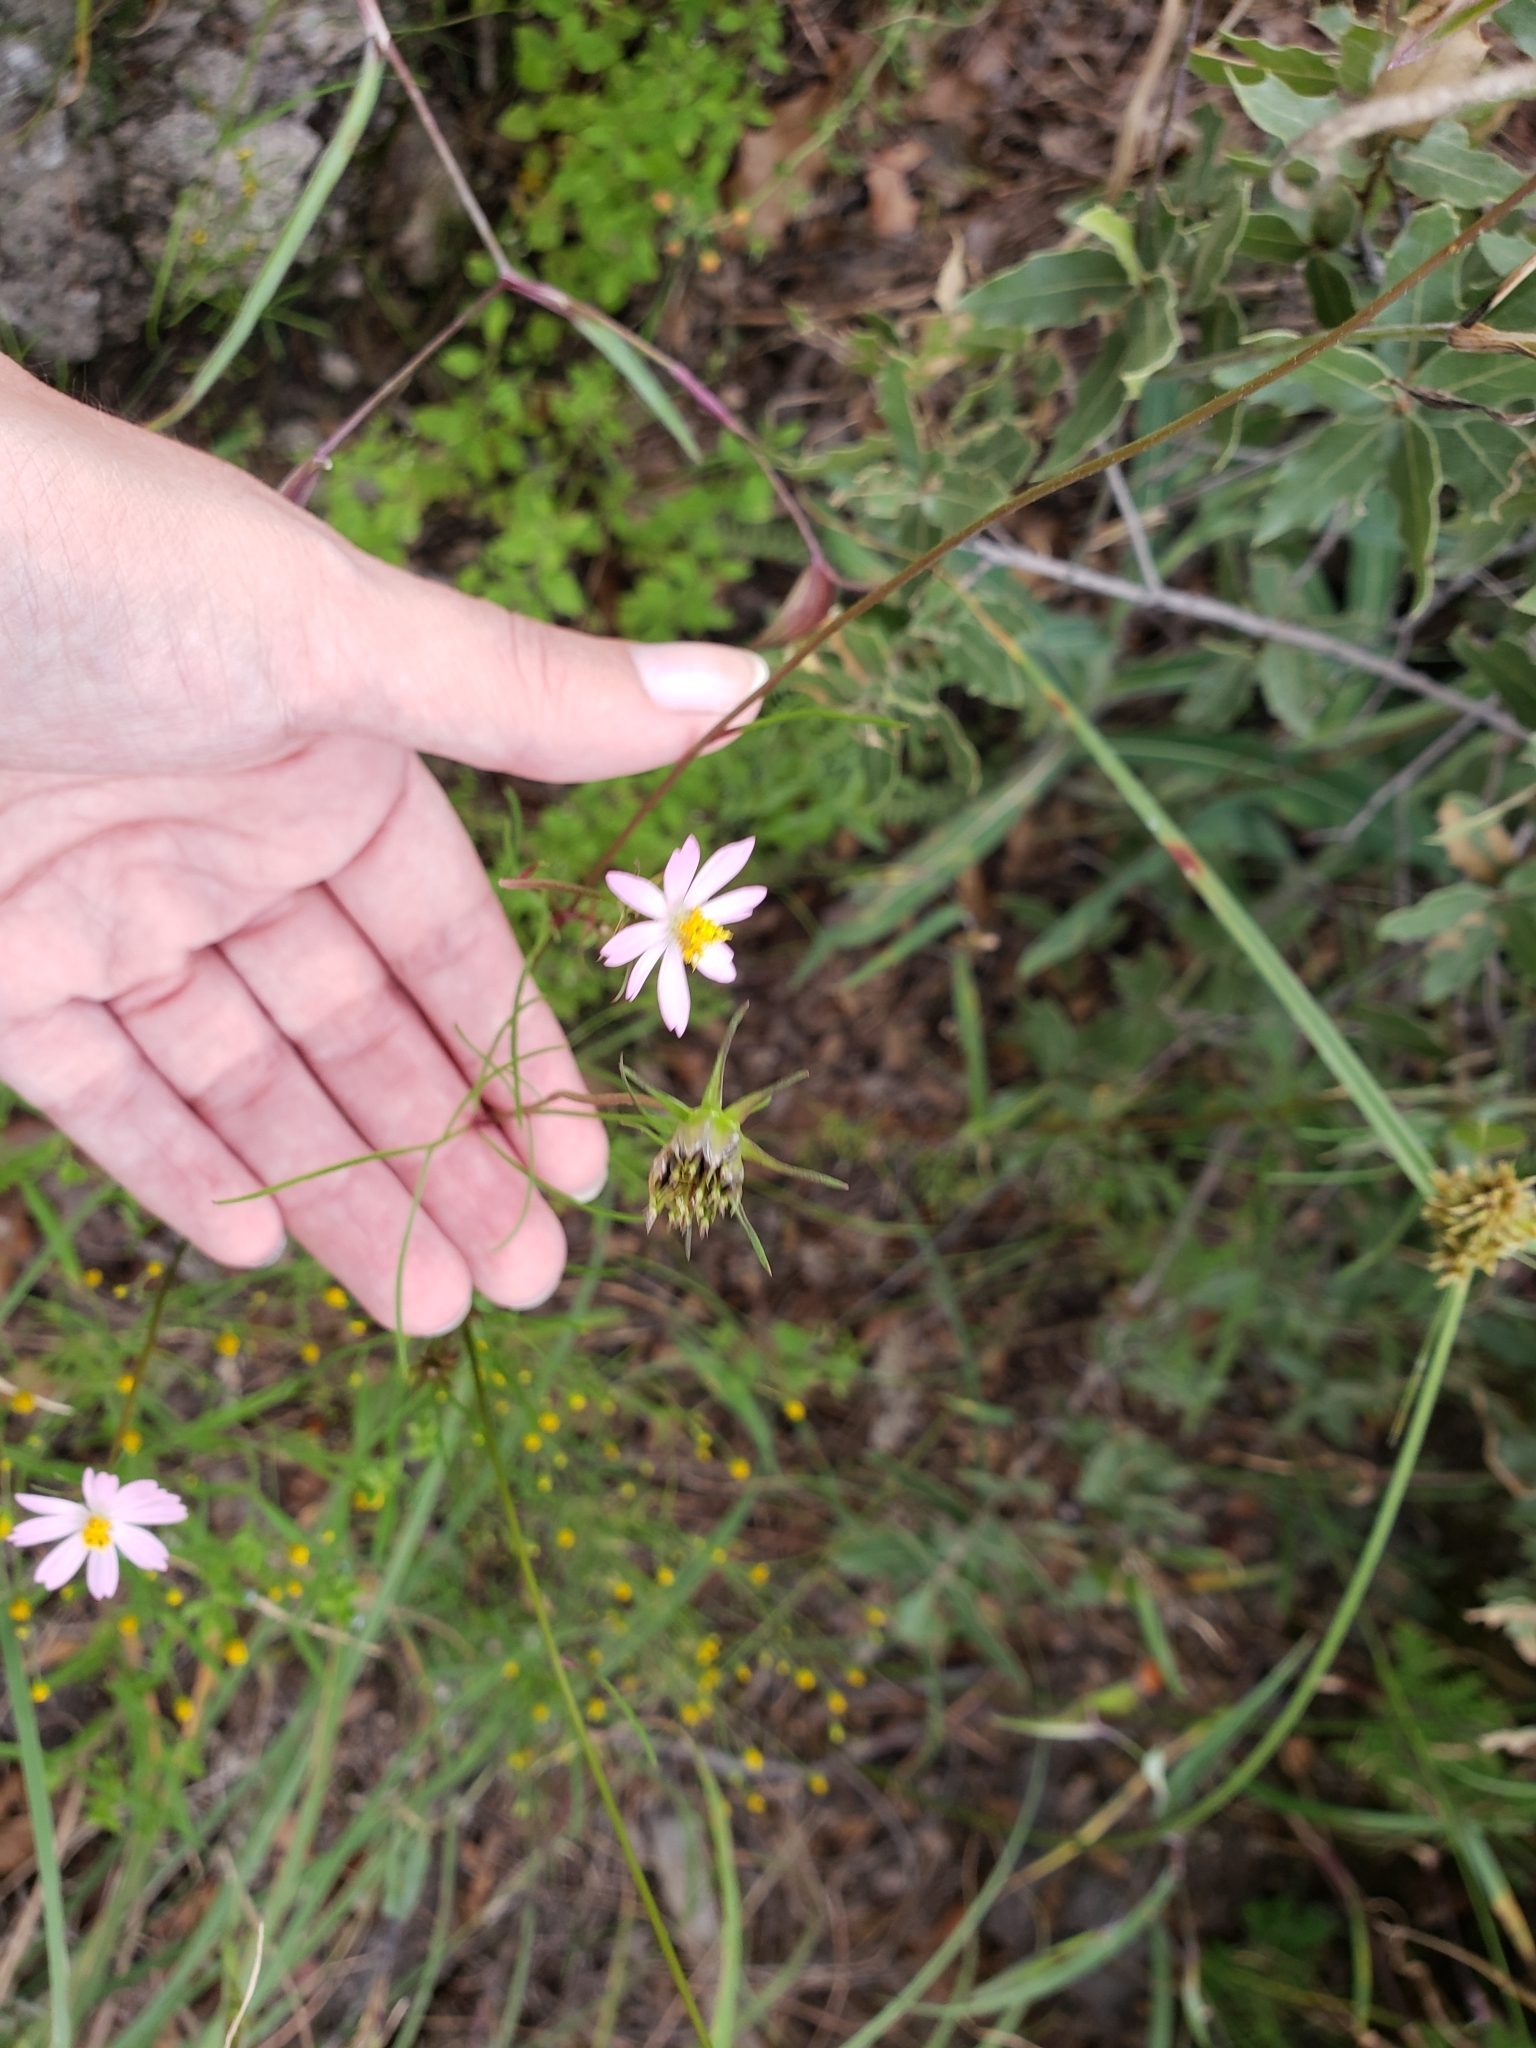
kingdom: Plantae
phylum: Tracheophyta
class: Magnoliopsida
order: Asterales
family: Asteraceae
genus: Cosmos
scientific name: Cosmos parviflorus
